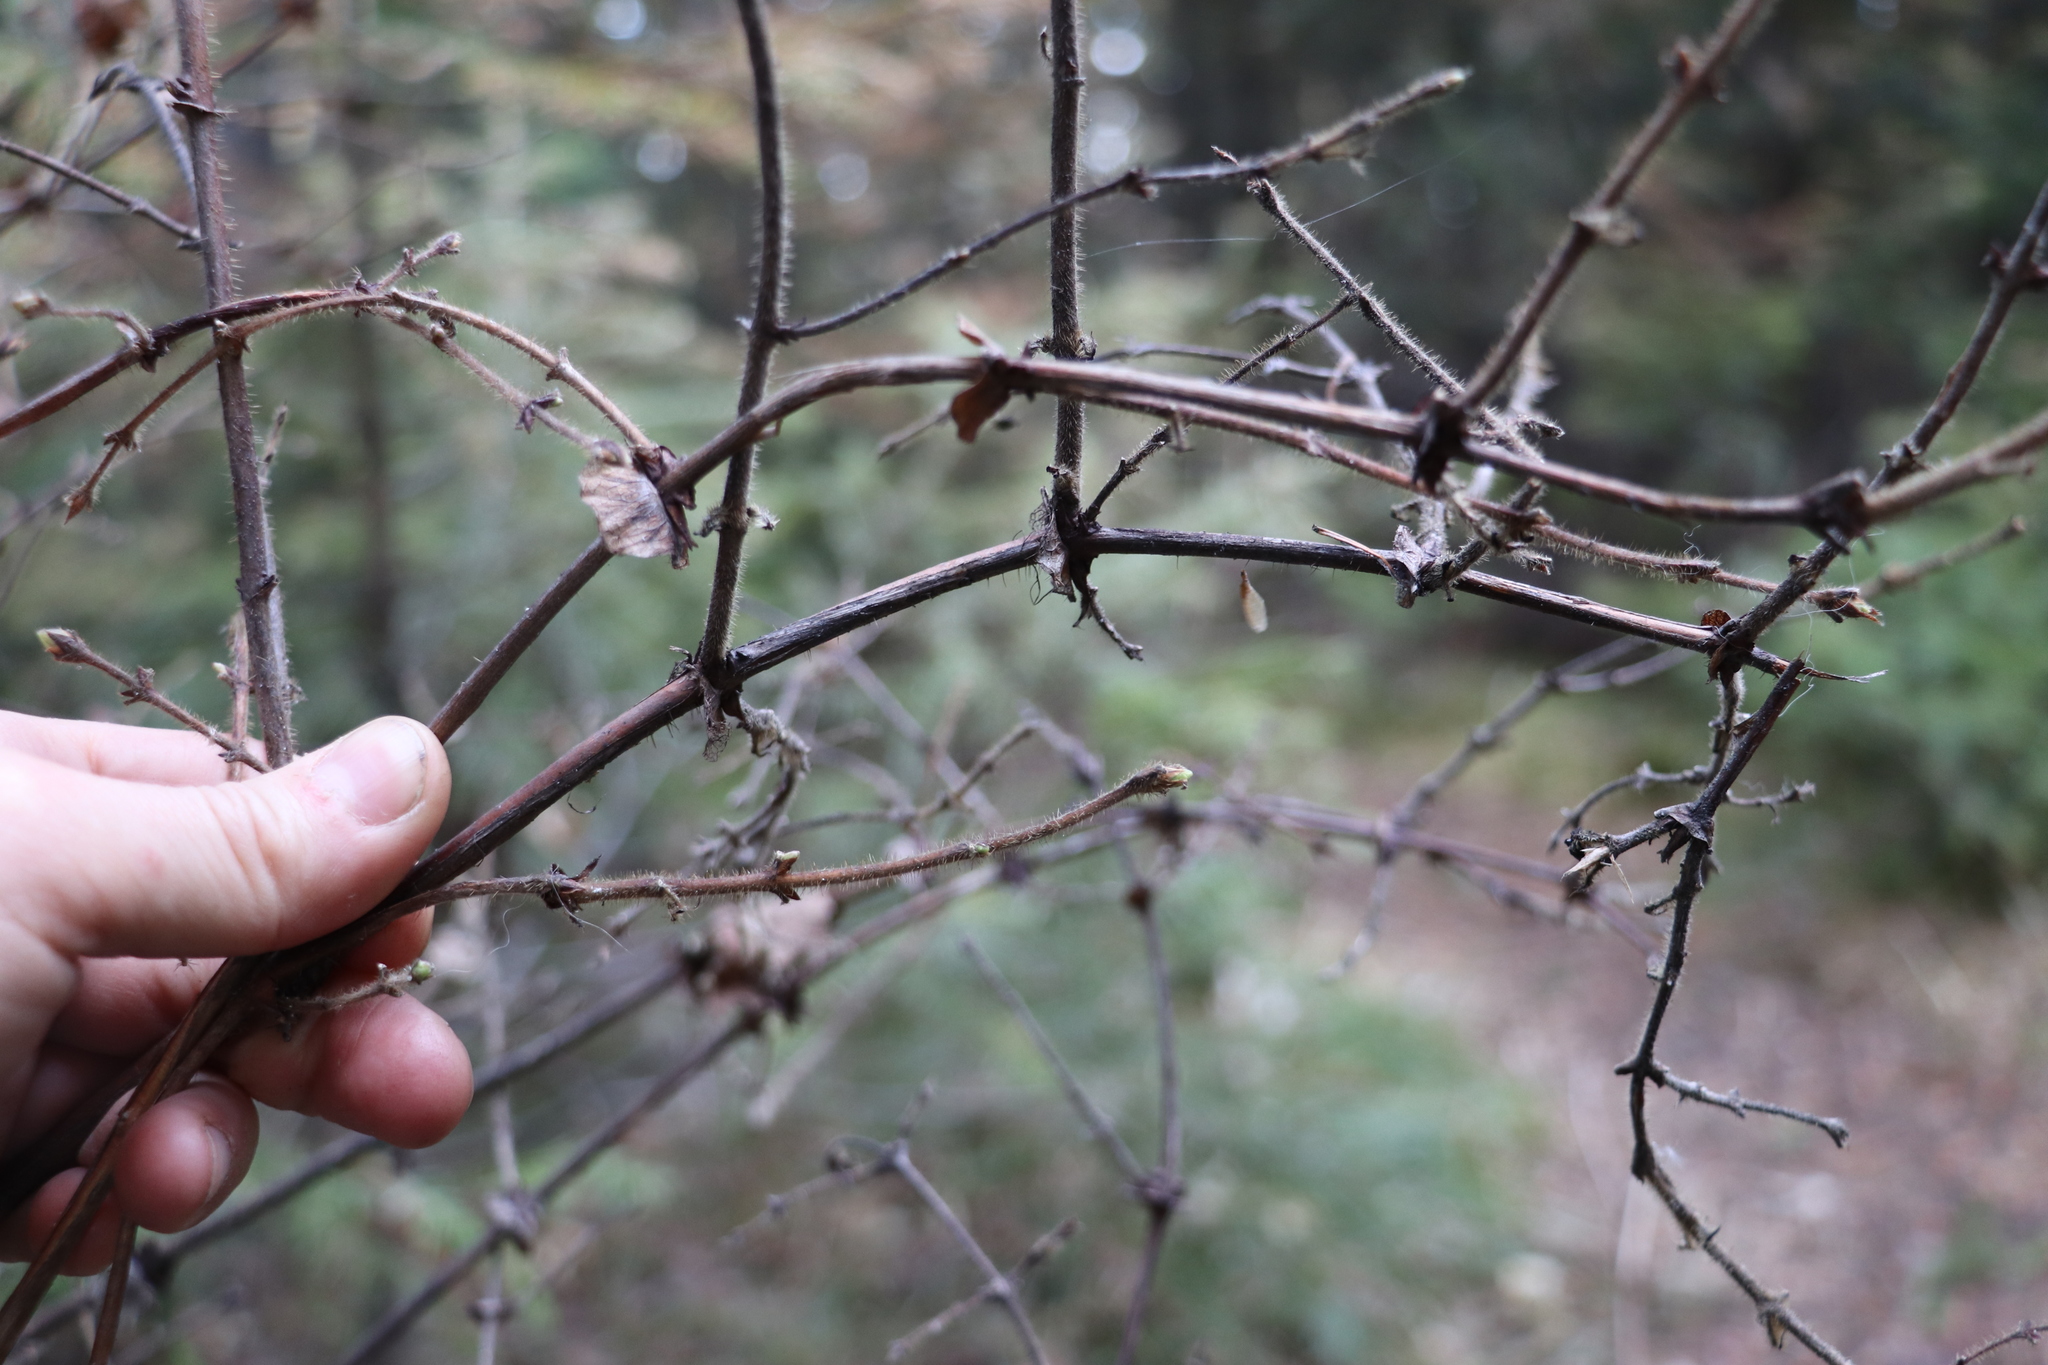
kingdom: Plantae
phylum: Tracheophyta
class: Magnoliopsida
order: Dipsacales
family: Caprifoliaceae
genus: Lonicera
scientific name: Lonicera caerulea
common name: Blue honeysuckle
